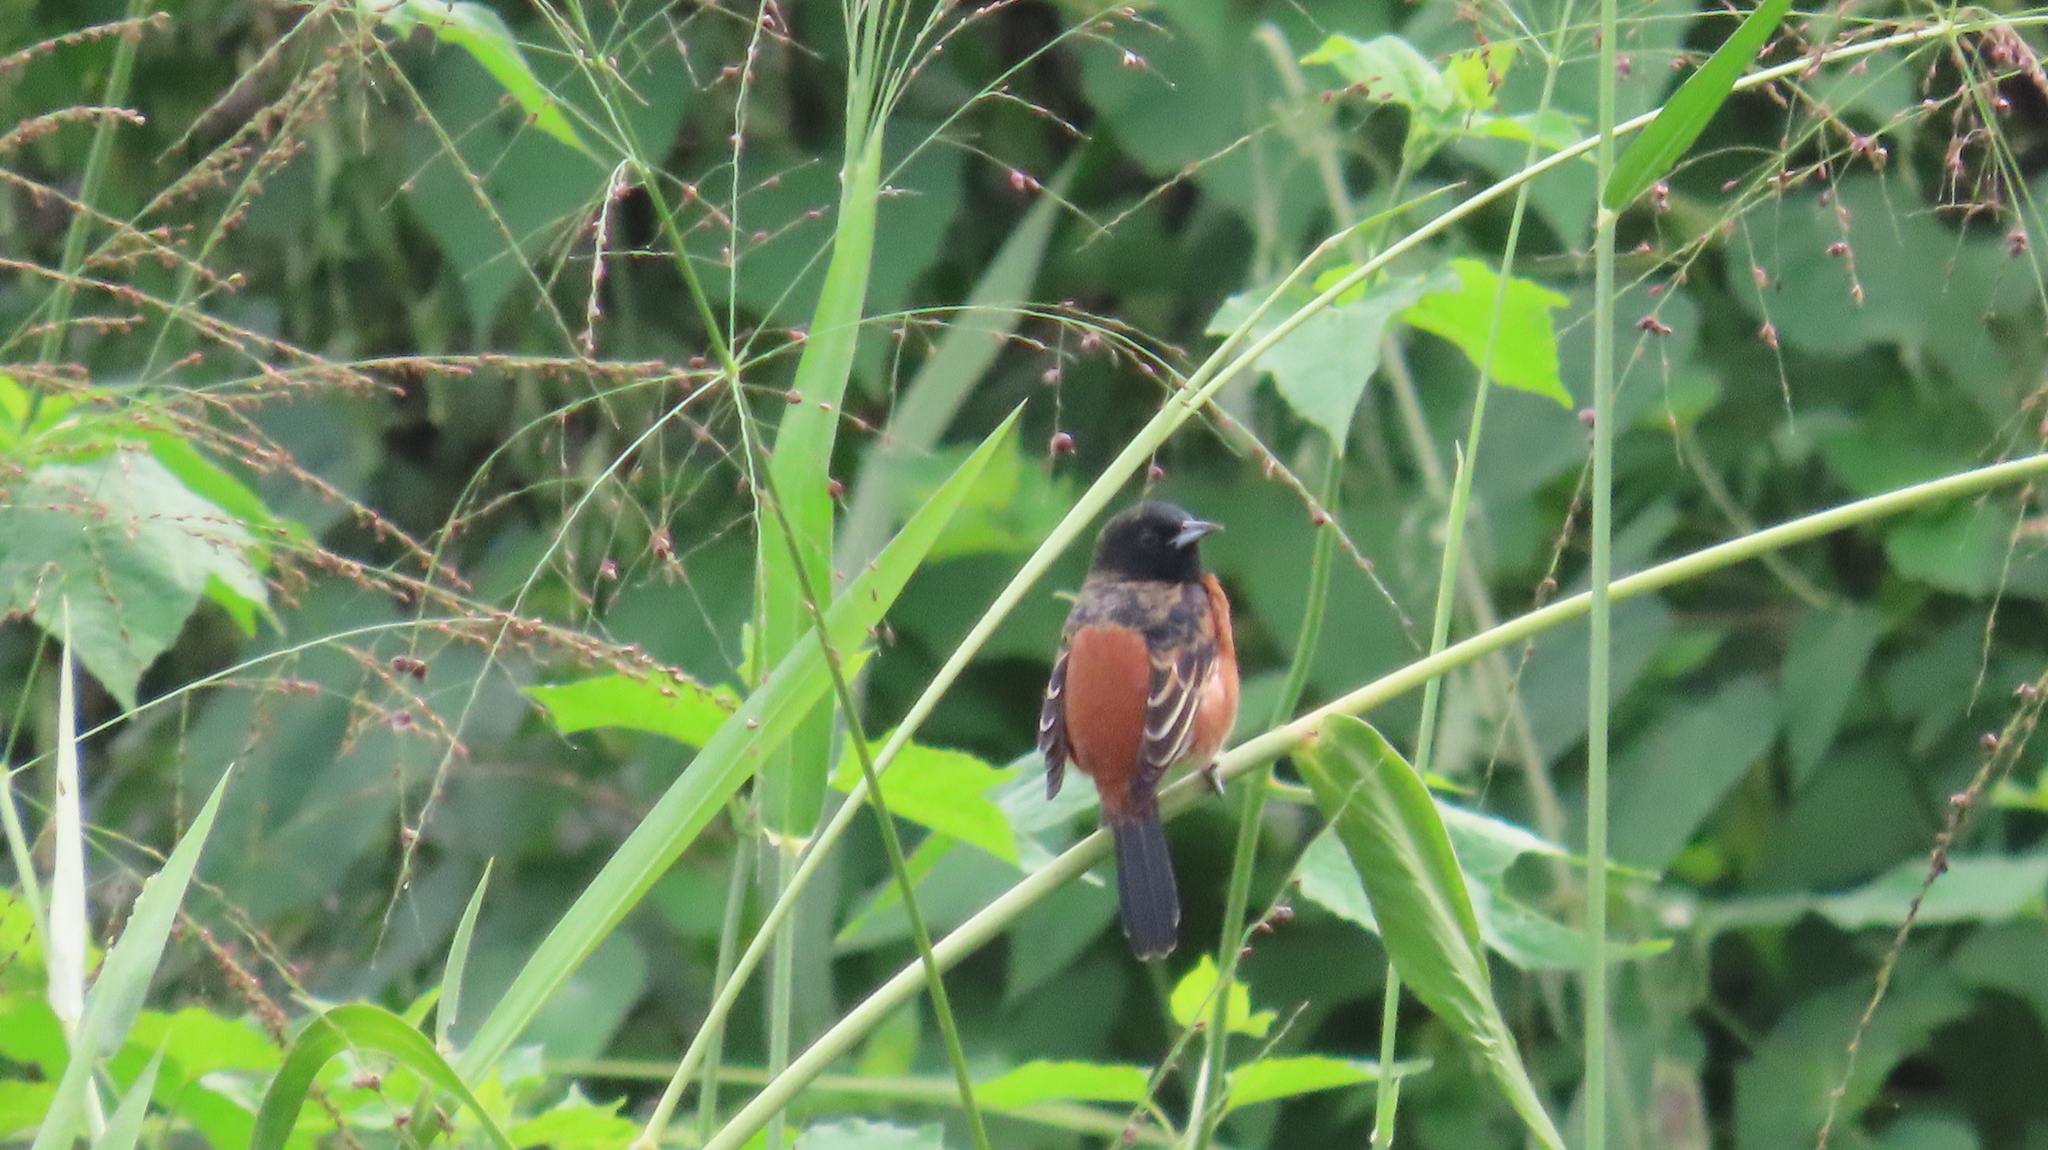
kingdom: Animalia
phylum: Chordata
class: Aves
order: Passeriformes
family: Icteridae
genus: Icterus
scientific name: Icterus spurius
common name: Orchard oriole
